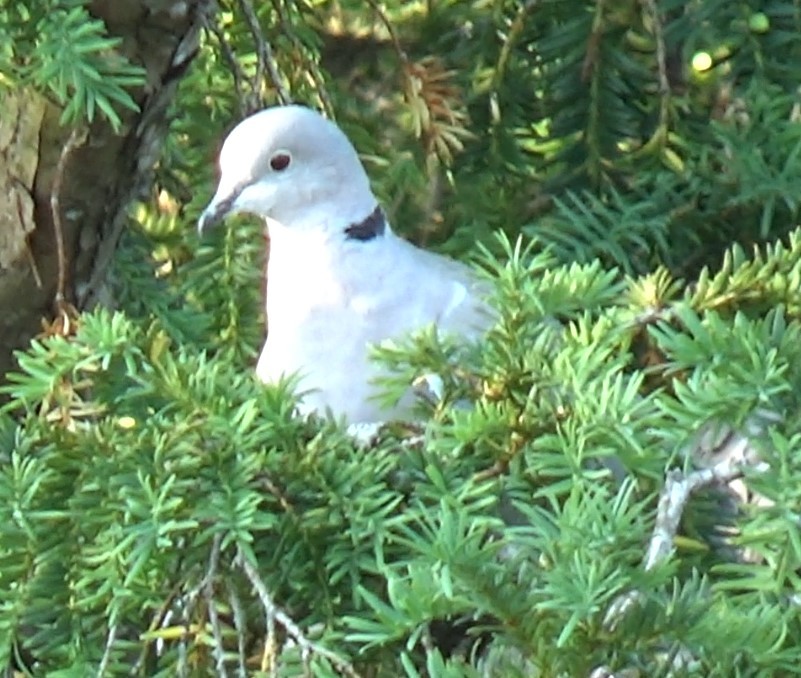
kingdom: Animalia
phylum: Chordata
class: Aves
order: Columbiformes
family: Columbidae
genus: Streptopelia
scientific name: Streptopelia decaocto
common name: Eurasian collared dove
